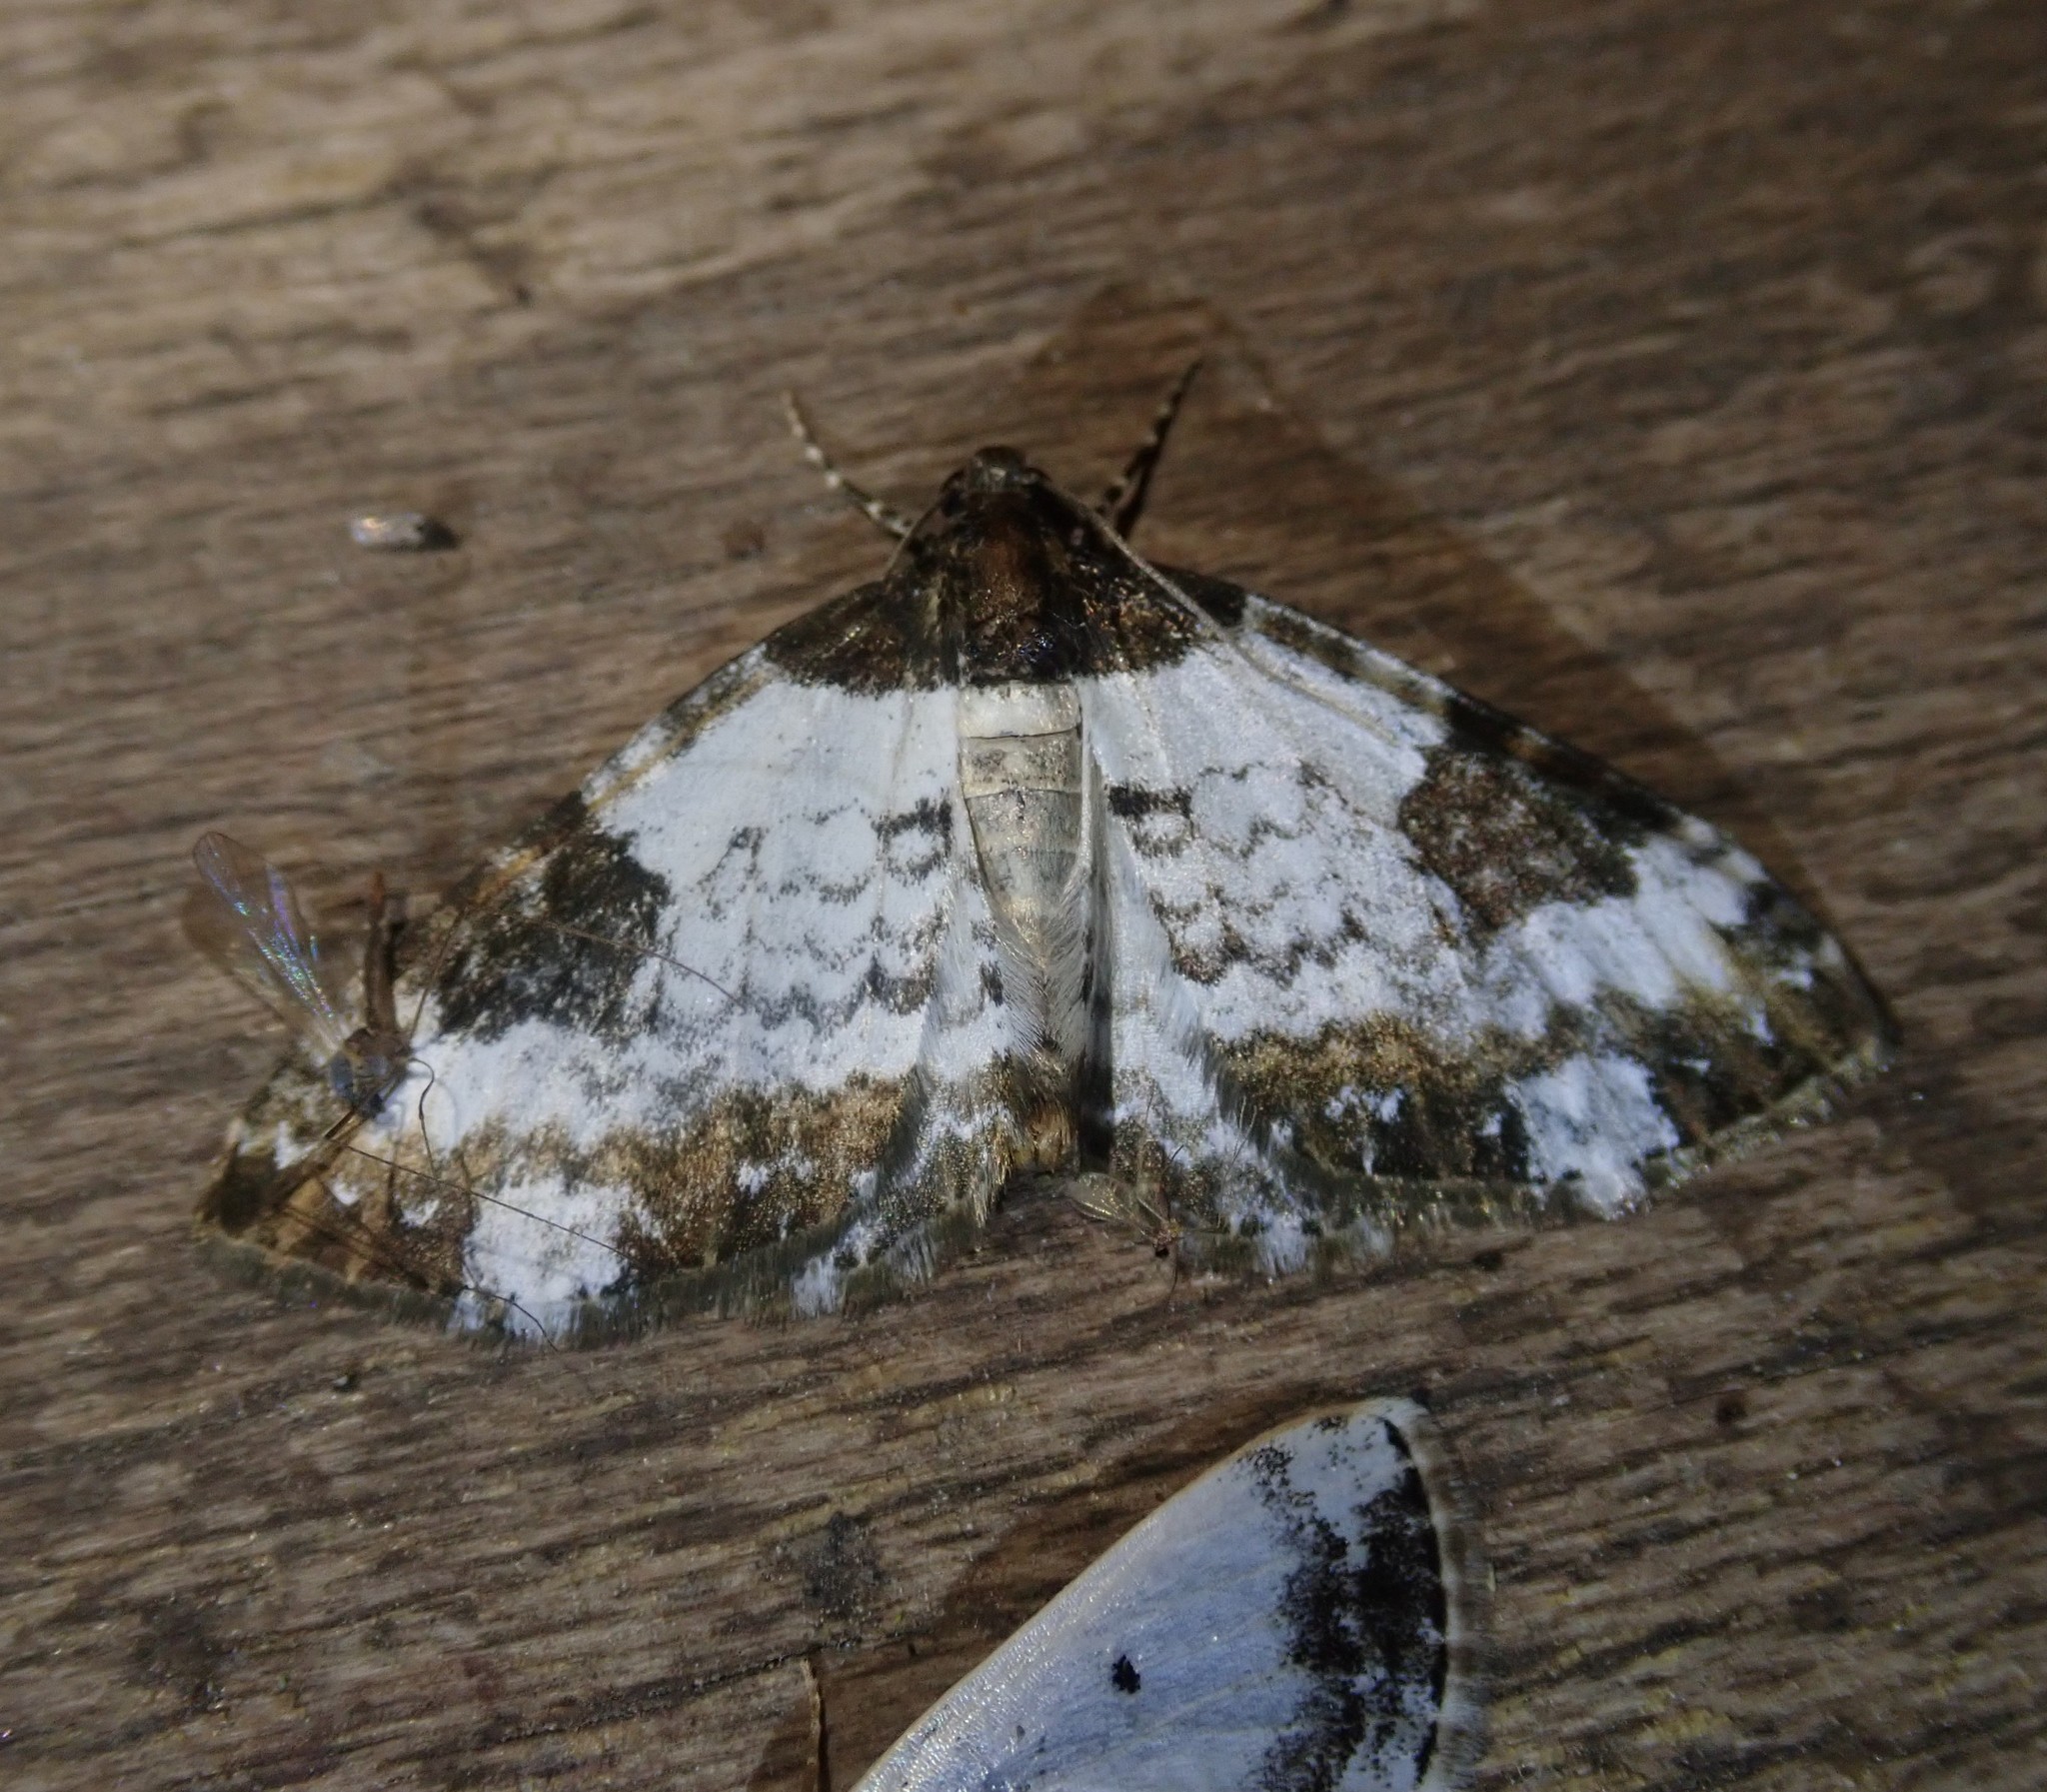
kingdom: Animalia
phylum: Arthropoda
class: Insecta
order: Lepidoptera
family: Geometridae
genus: Melanthia
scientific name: Melanthia procellata
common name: Pretty chalk carpet
